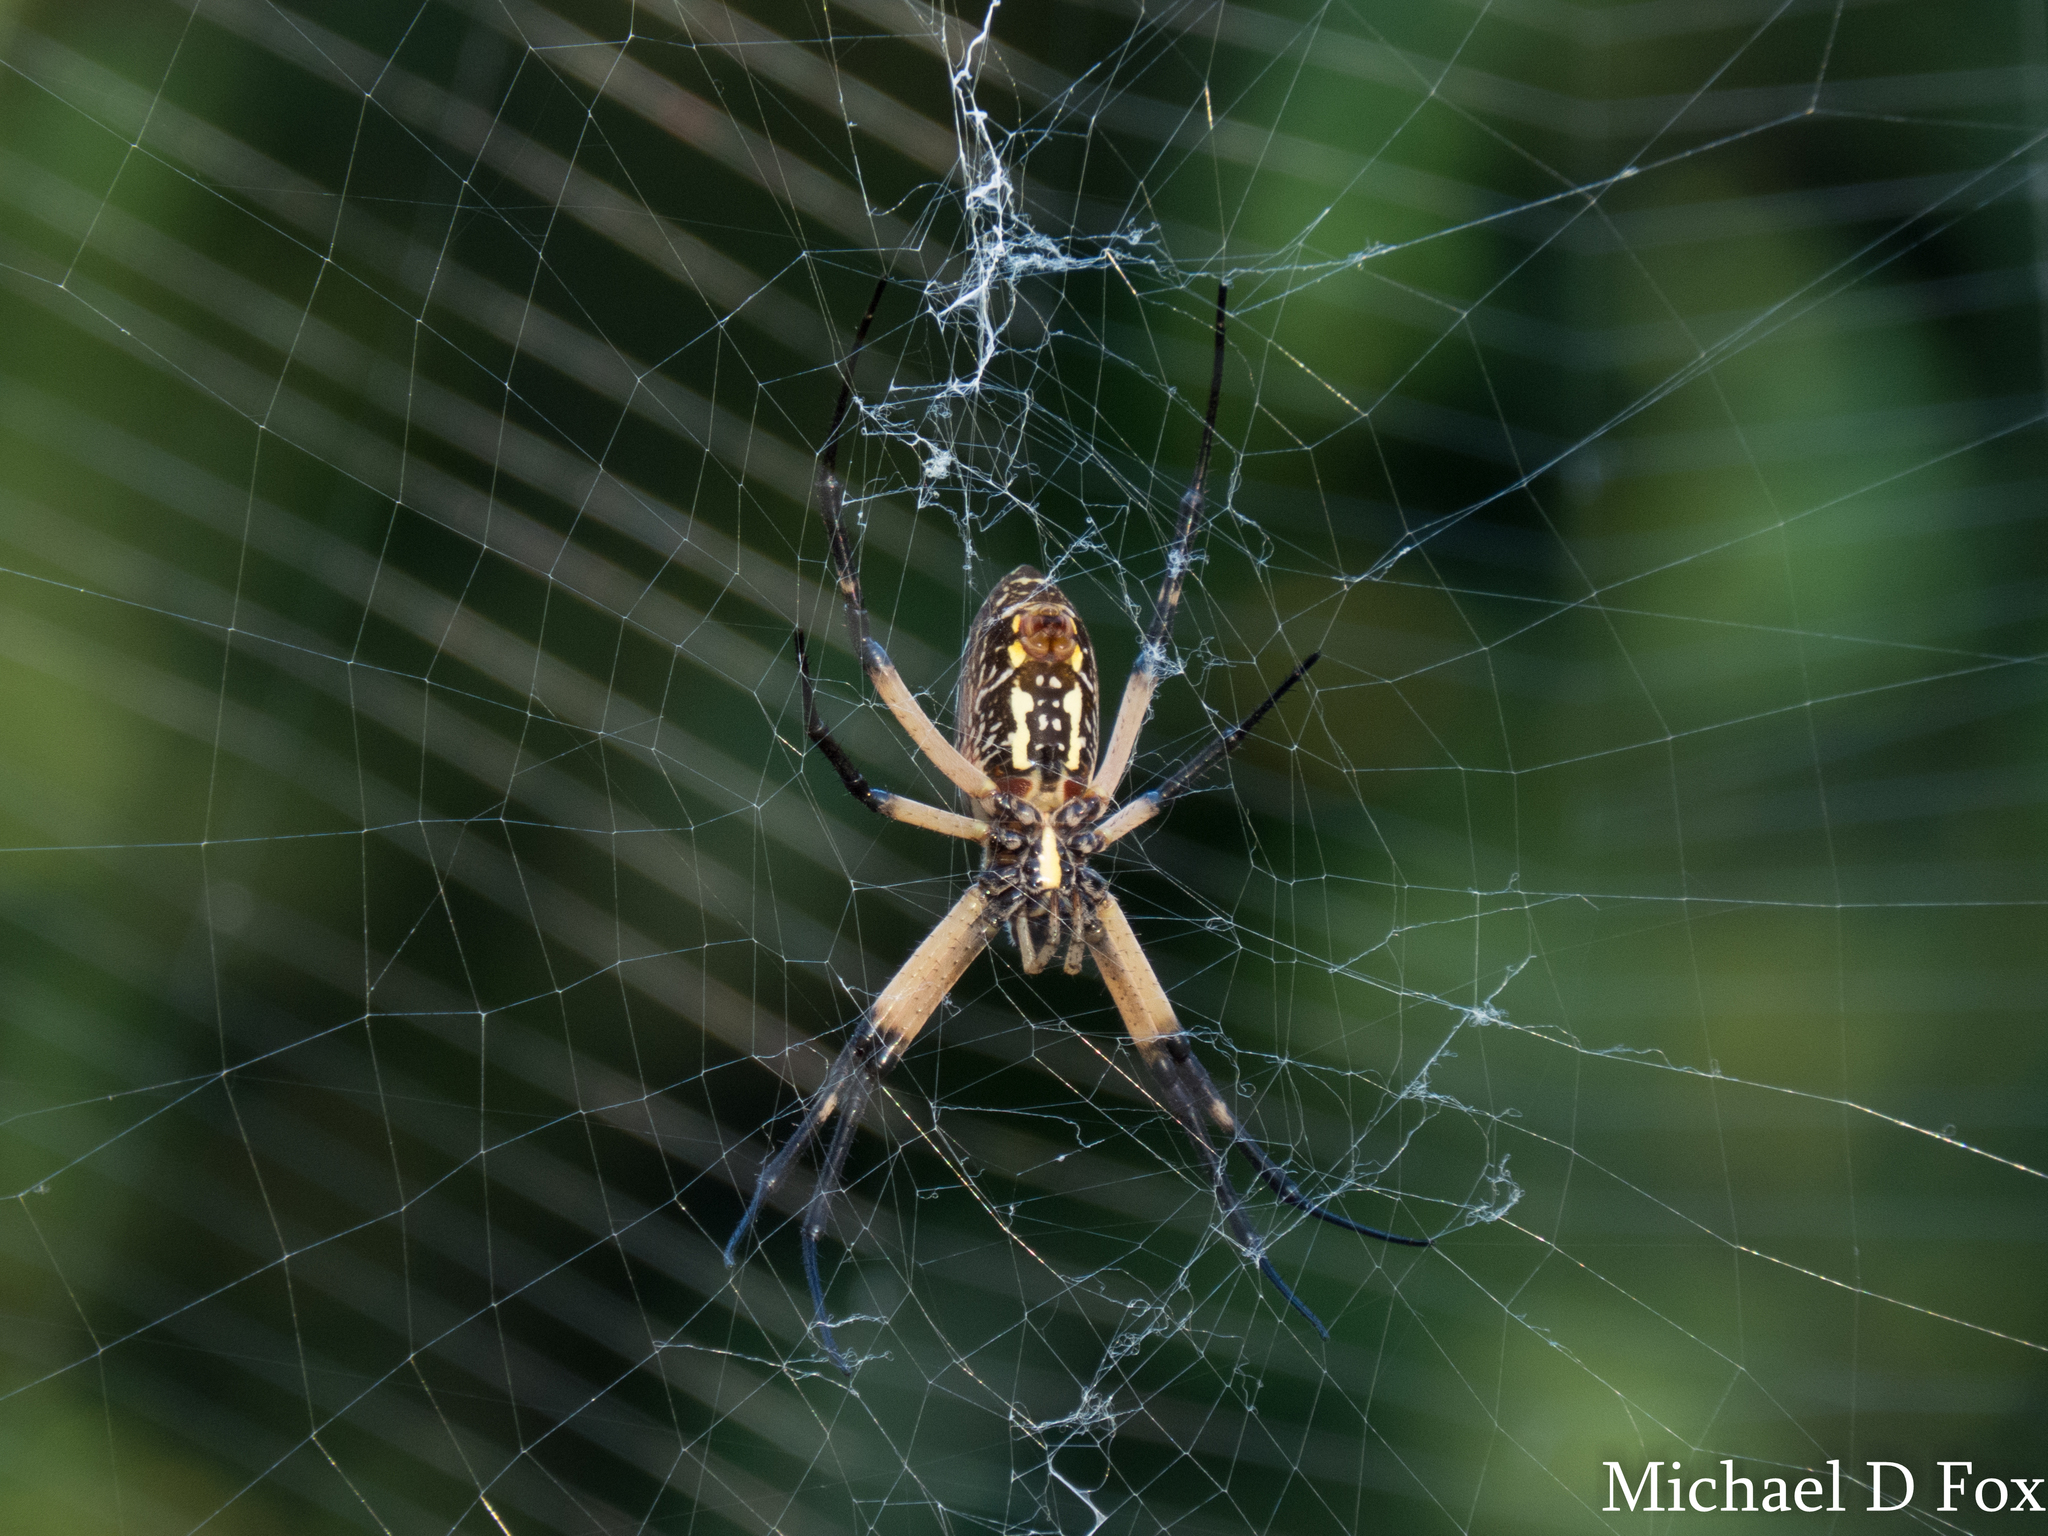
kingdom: Animalia
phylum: Arthropoda
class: Arachnida
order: Araneae
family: Araneidae
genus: Argiope
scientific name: Argiope aurantia
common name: Orb weavers
